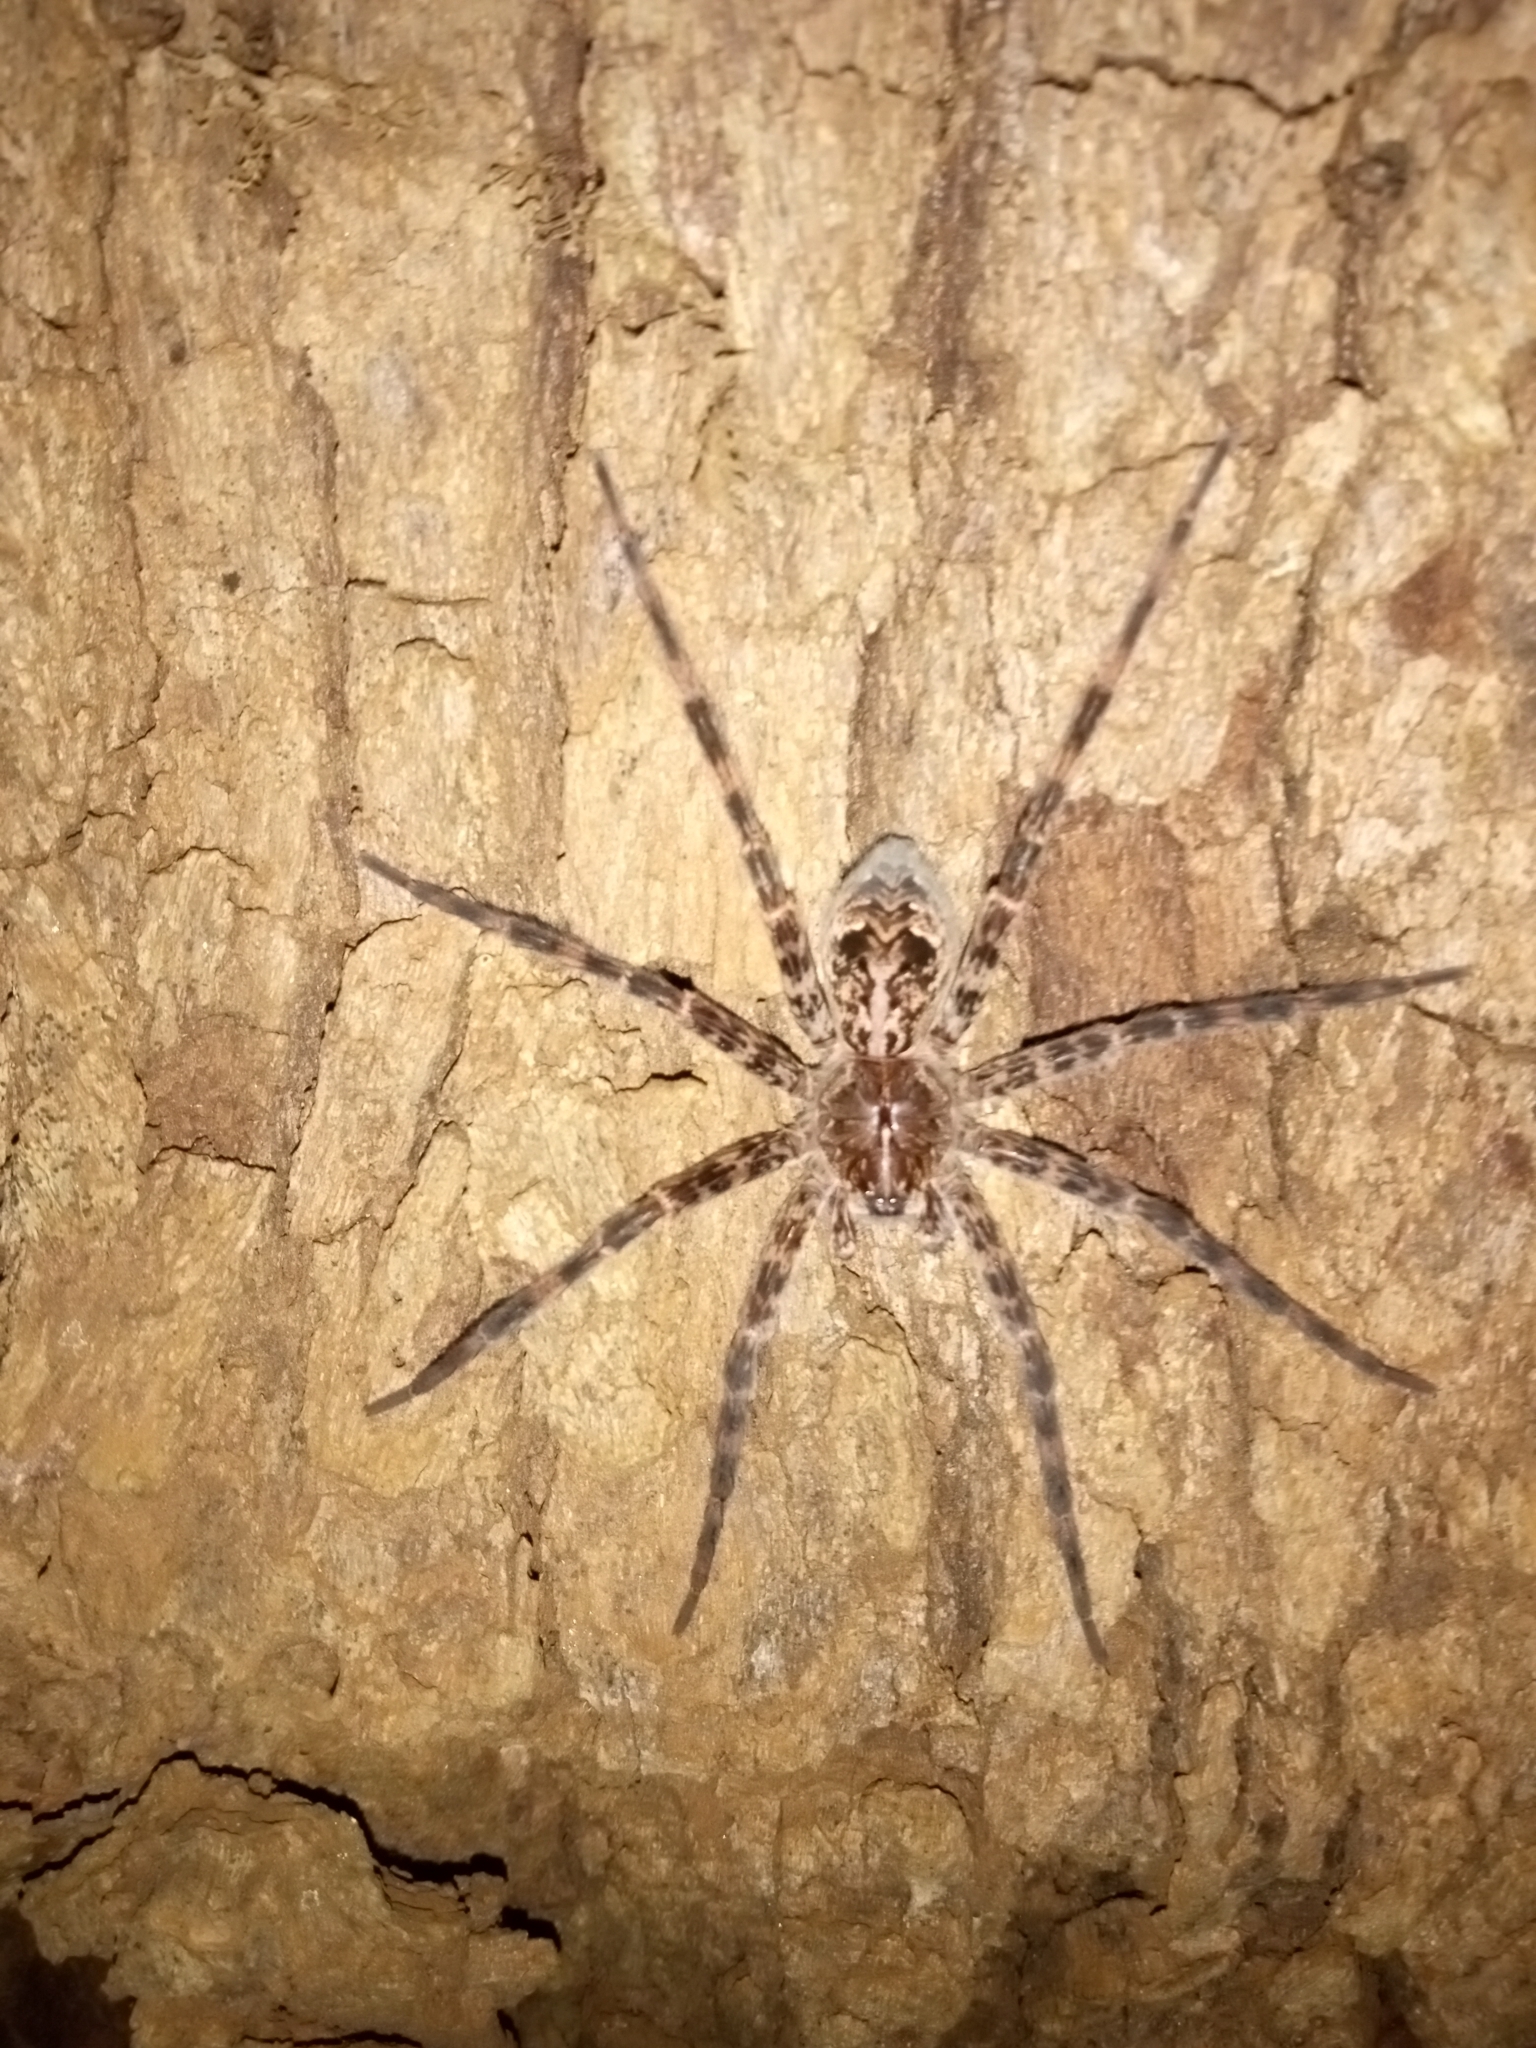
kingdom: Animalia
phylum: Arthropoda
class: Arachnida
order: Araneae
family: Pisauridae
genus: Dolomedes
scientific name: Dolomedes tenebrosus
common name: Dark fishing spider
